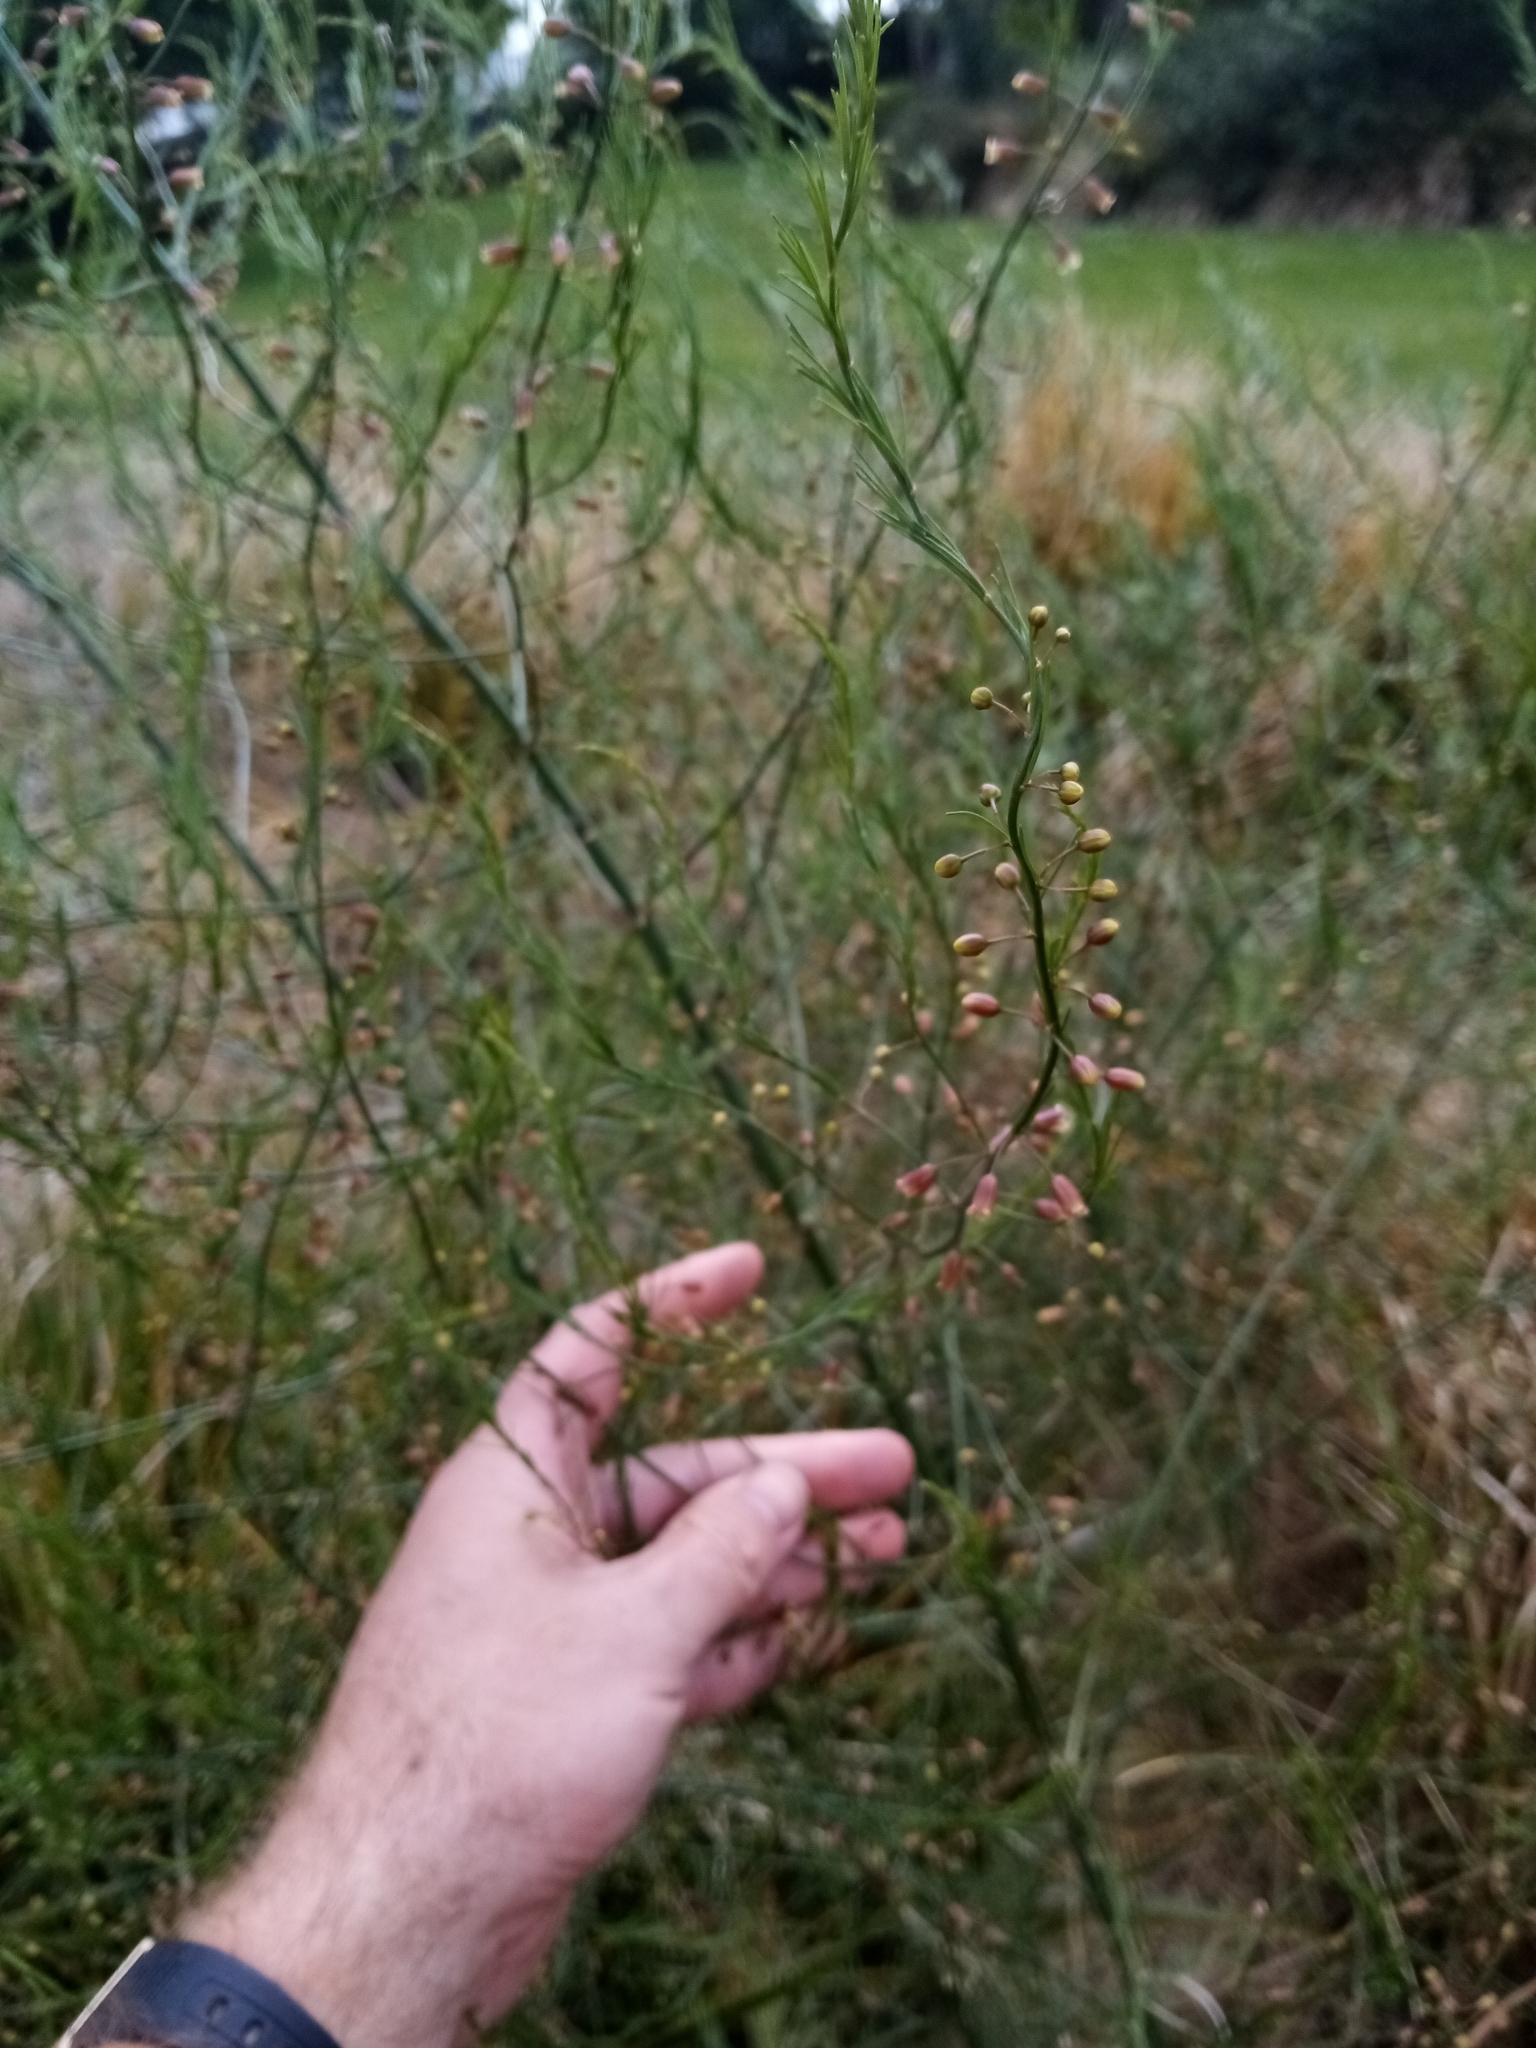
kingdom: Plantae
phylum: Tracheophyta
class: Liliopsida
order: Asparagales
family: Asparagaceae
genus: Asparagus
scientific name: Asparagus officinalis
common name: Garden asparagus
